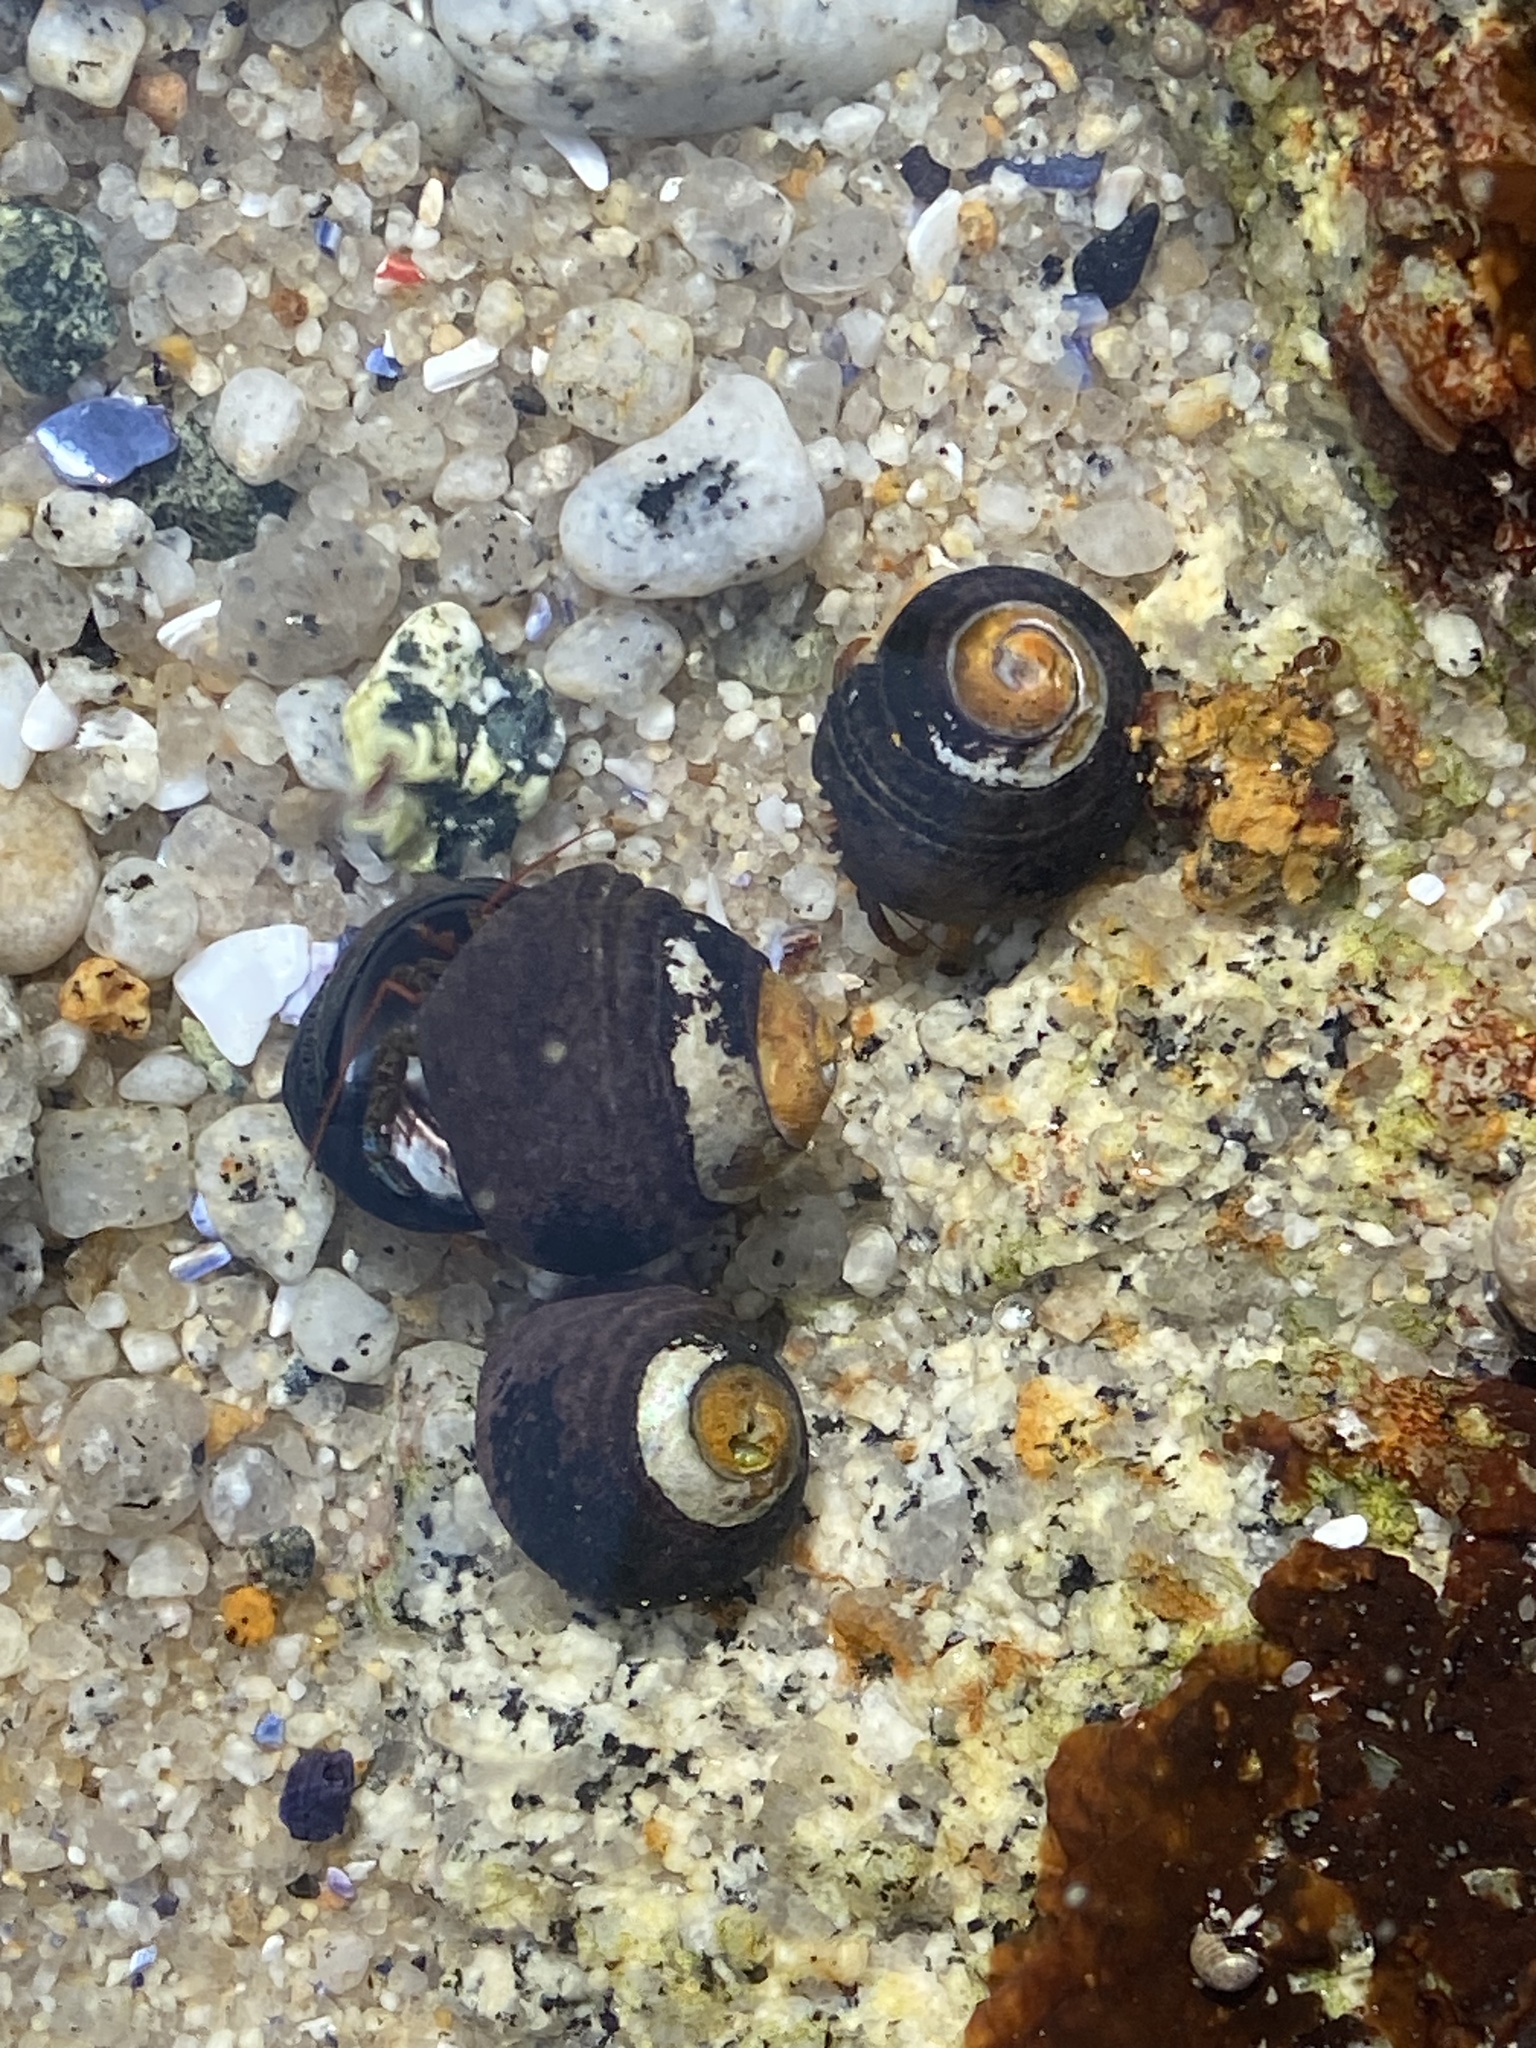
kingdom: Animalia
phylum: Mollusca
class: Gastropoda
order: Trochida
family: Tegulidae
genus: Tegula
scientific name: Tegula funebralis
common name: Black tegula
